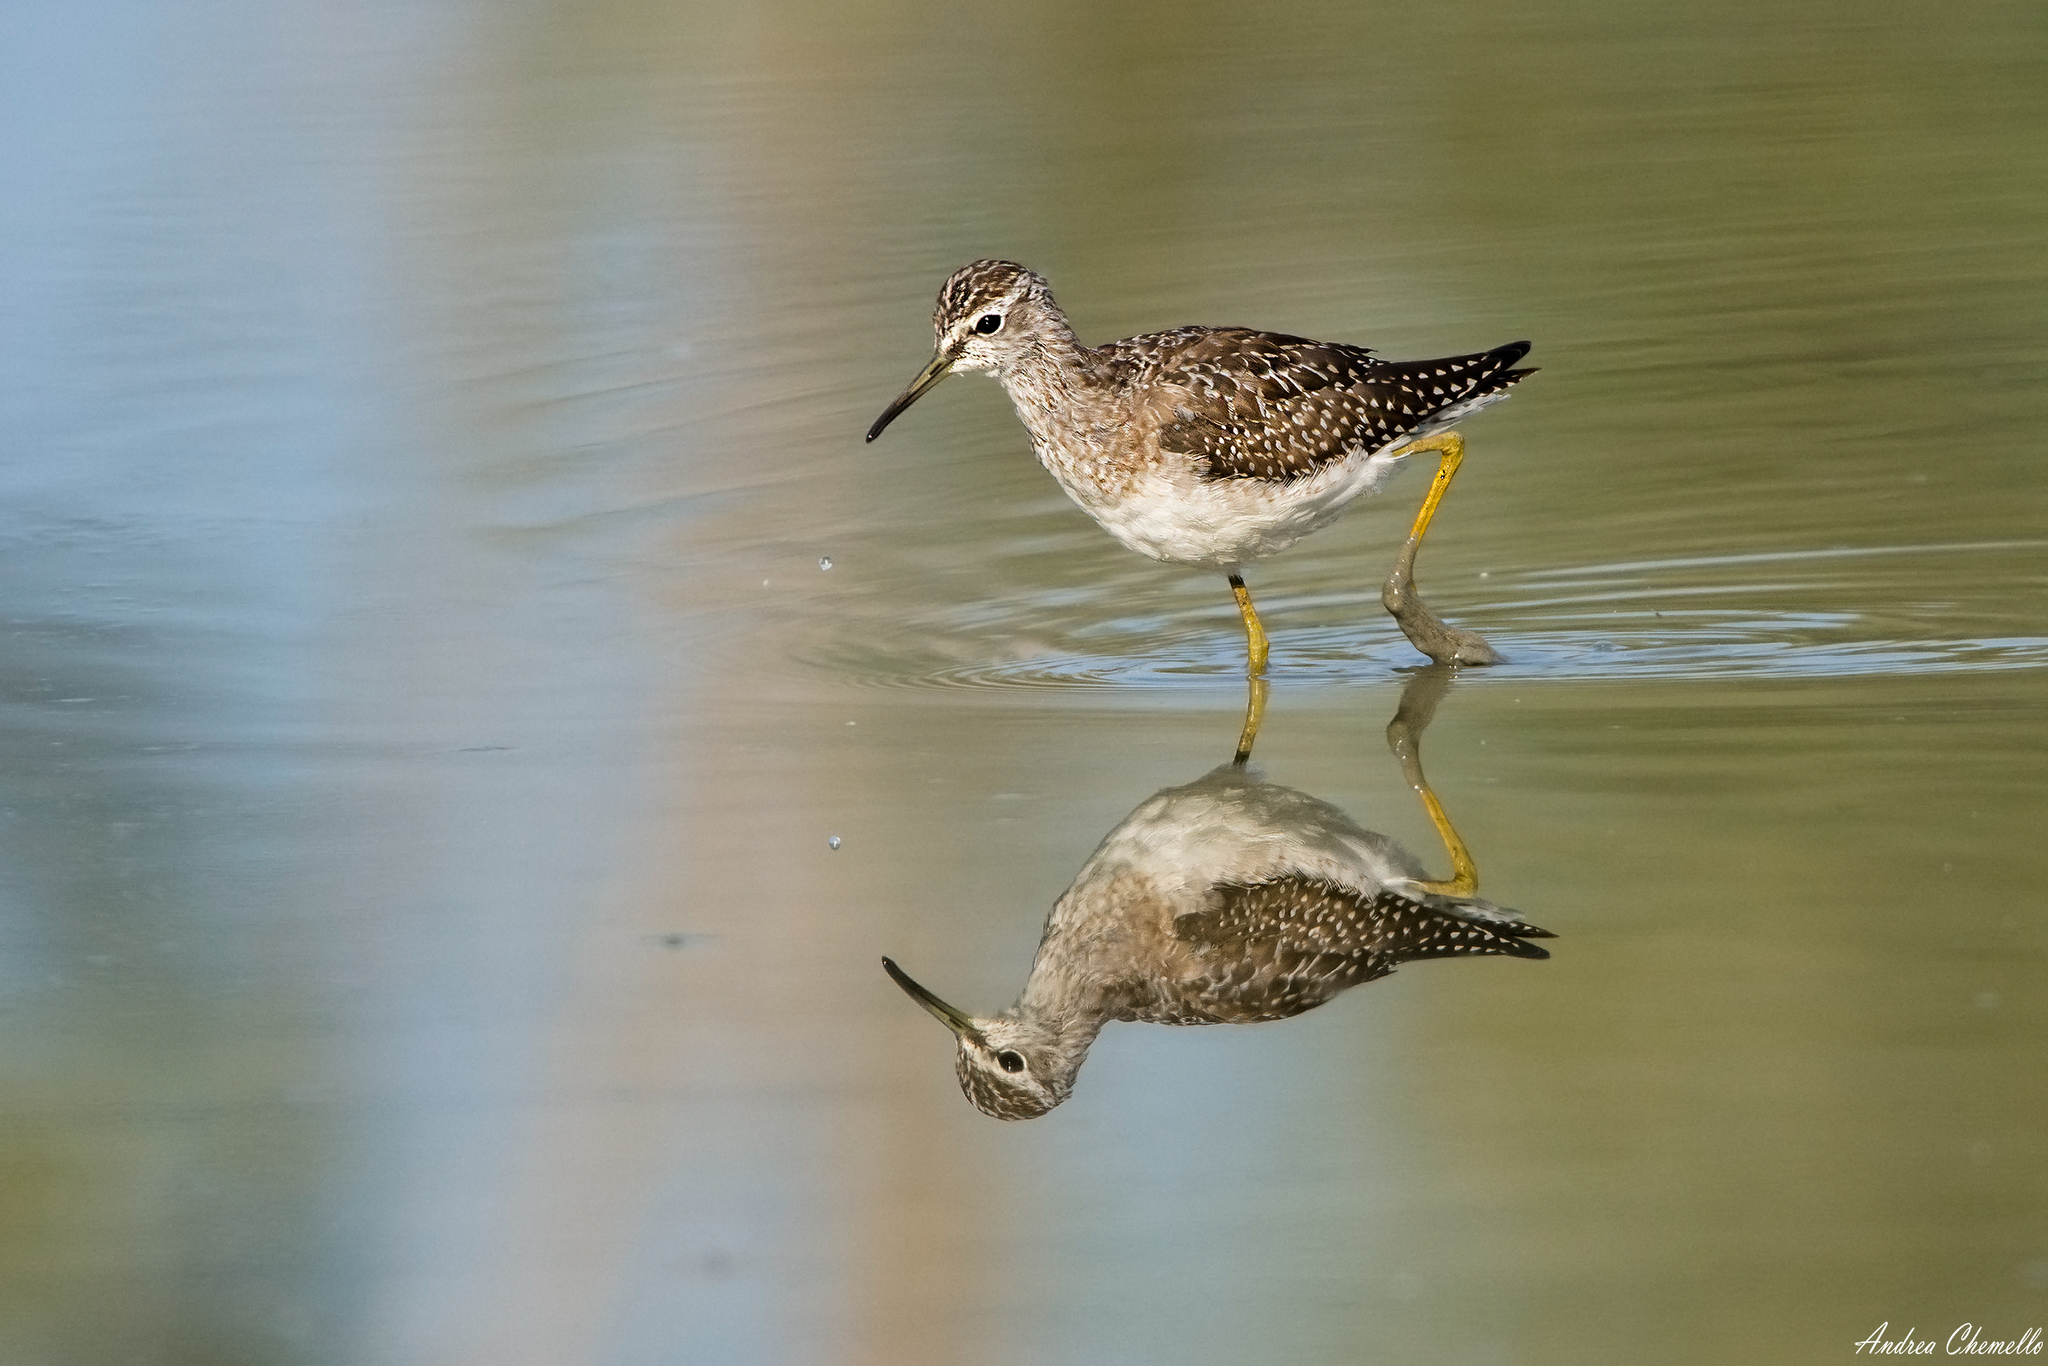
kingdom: Animalia
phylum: Chordata
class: Aves
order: Charadriiformes
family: Scolopacidae
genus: Tringa
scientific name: Tringa glareola
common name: Wood sandpiper
